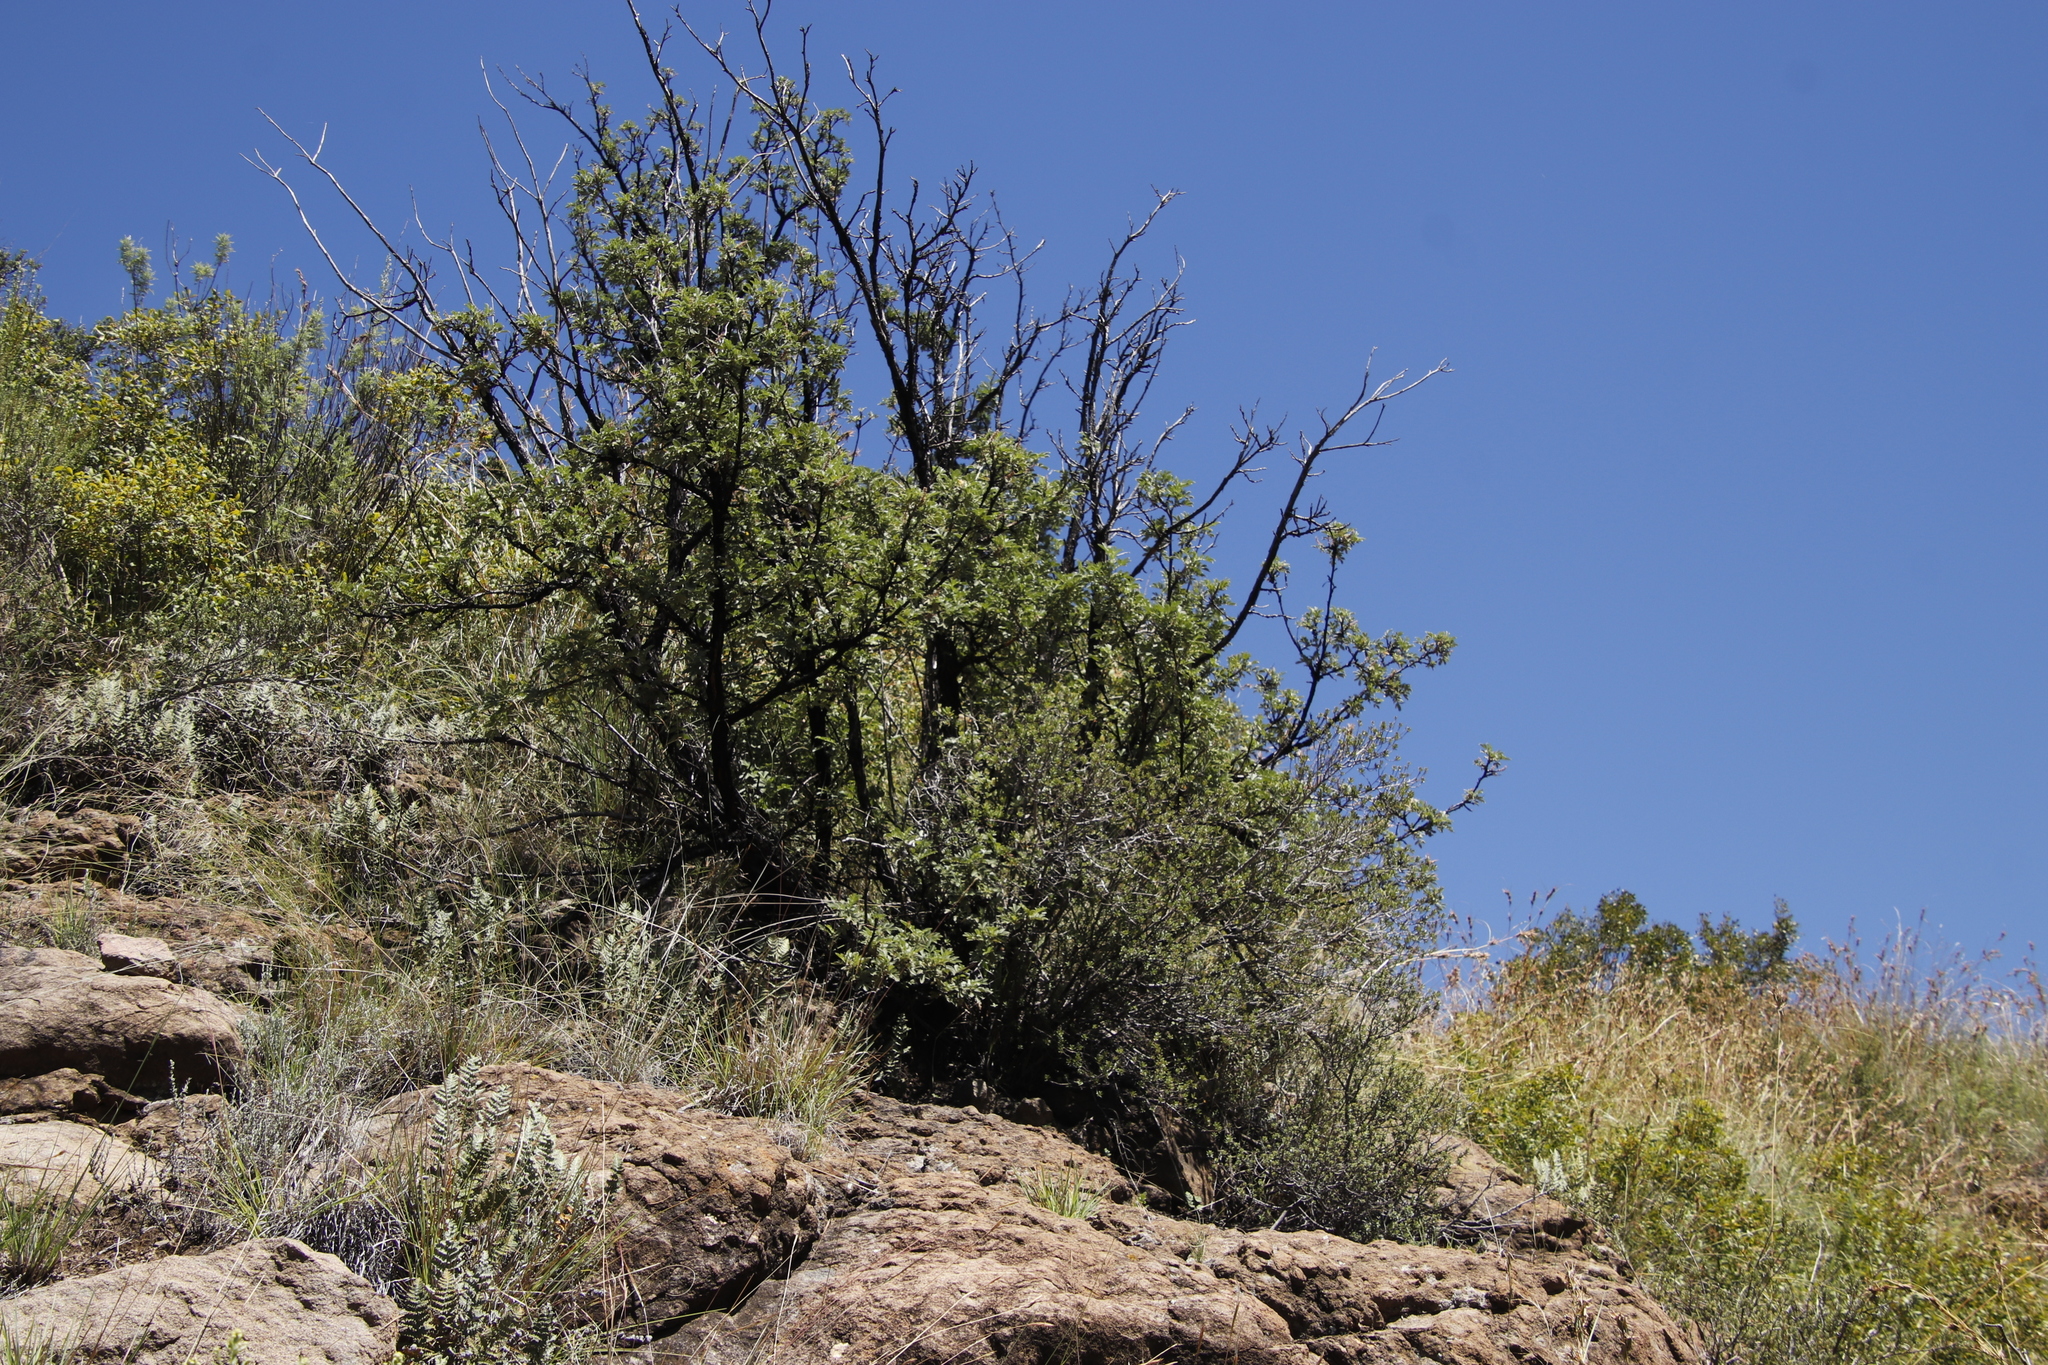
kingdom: Plantae
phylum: Tracheophyta
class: Magnoliopsida
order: Rosales
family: Rosaceae
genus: Leucosidea
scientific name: Leucosidea sericea
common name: Oldwood
